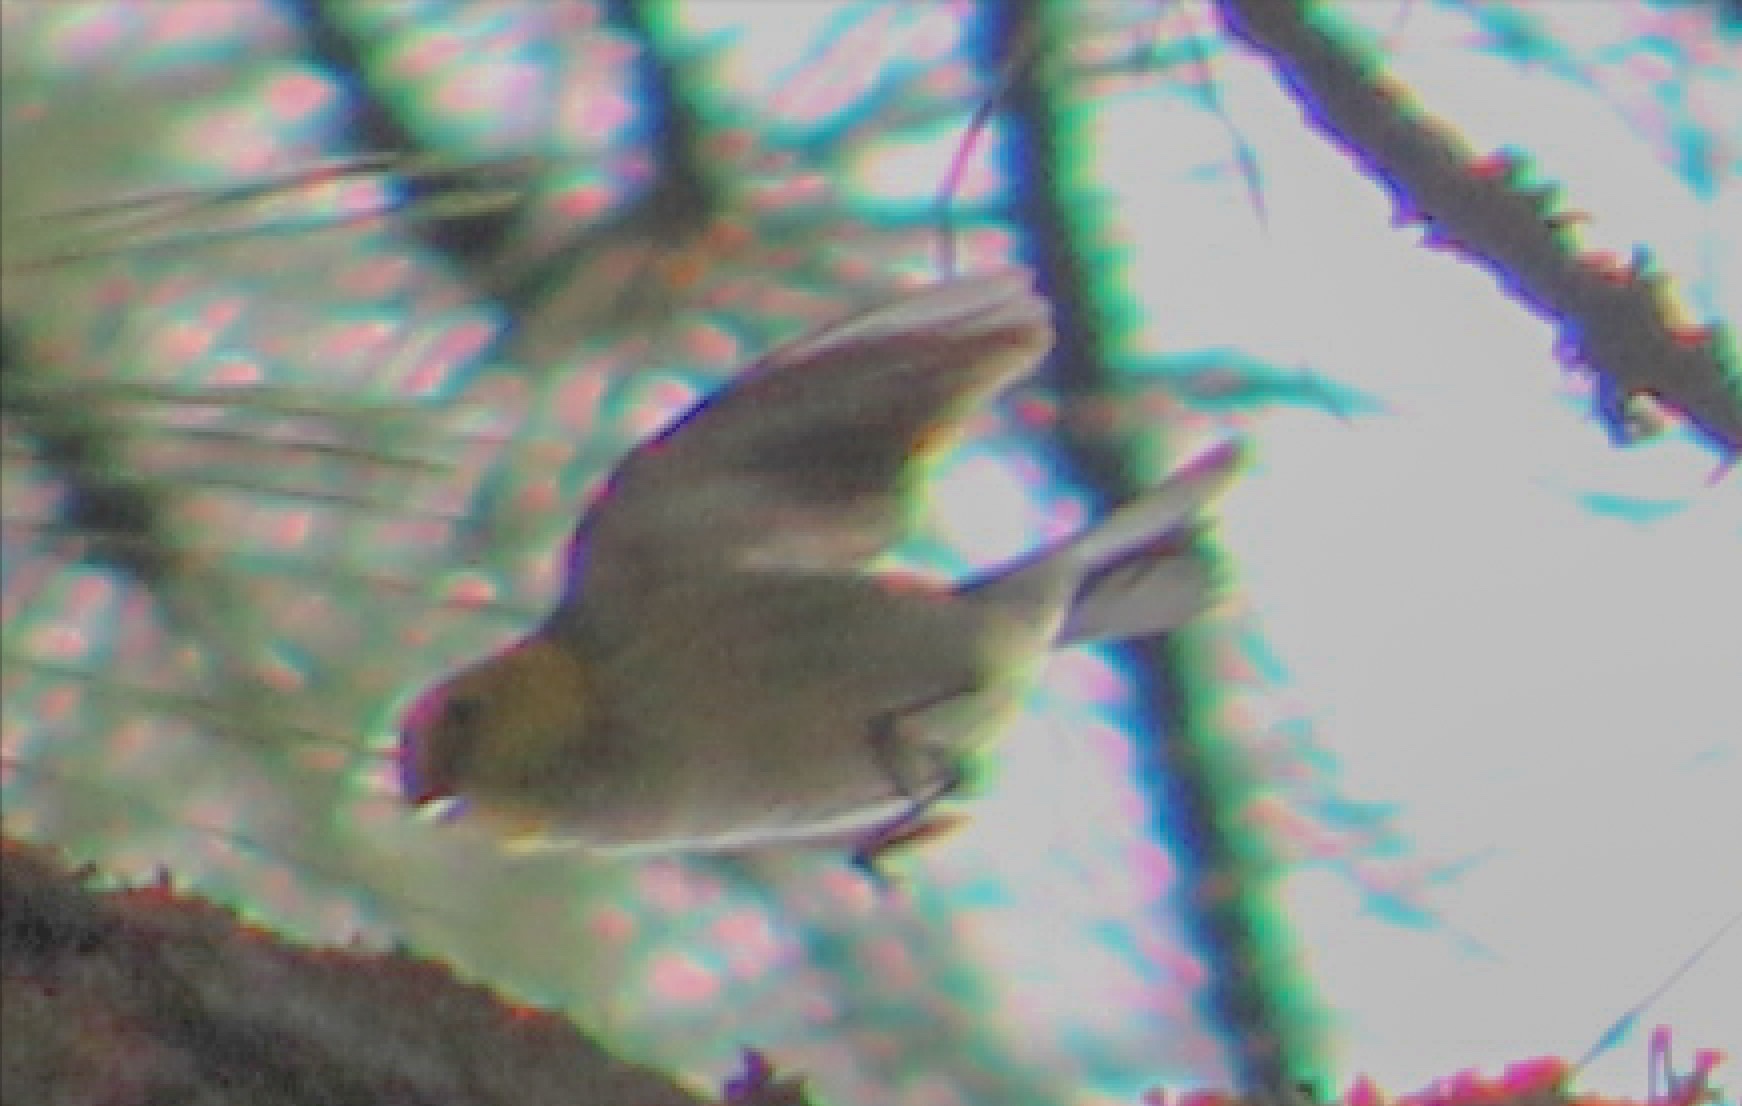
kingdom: Animalia
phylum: Chordata
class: Aves
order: Passeriformes
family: Parulidae
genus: Setophaga
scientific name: Setophaga occidentalis
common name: Hermit warbler
